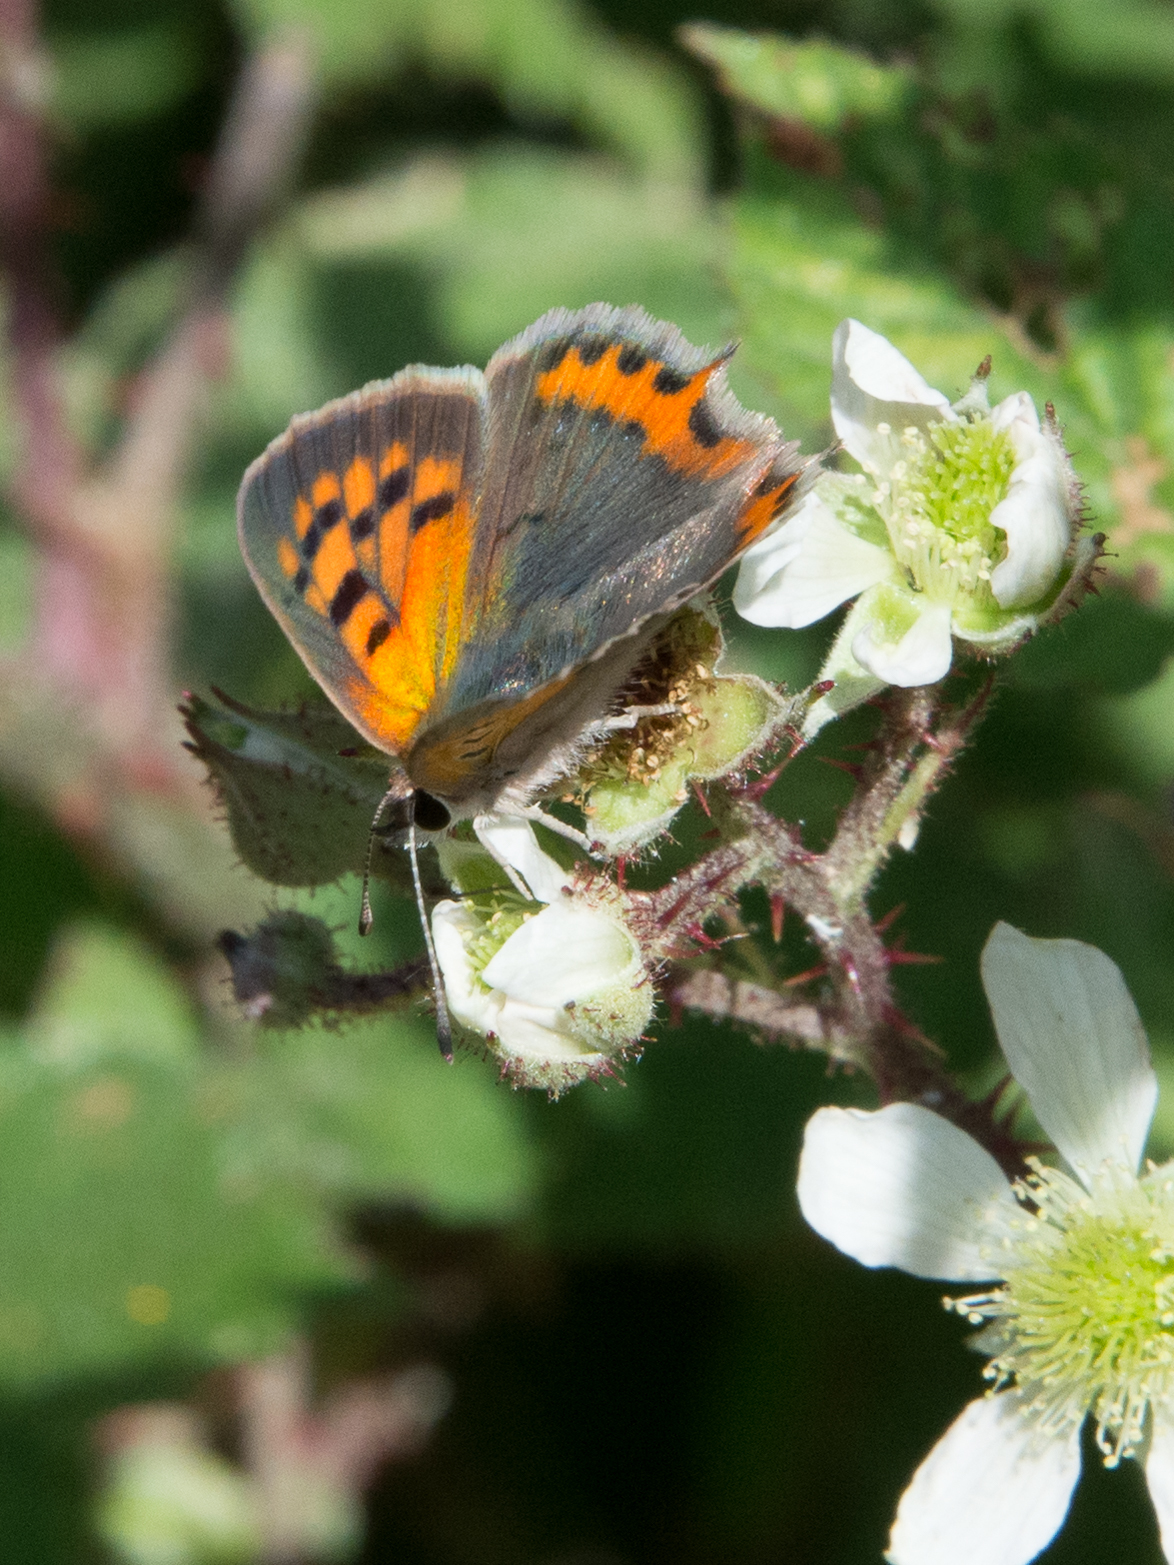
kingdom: Animalia
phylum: Arthropoda
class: Insecta
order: Lepidoptera
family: Lycaenidae
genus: Lycaena
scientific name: Lycaena phlaeas
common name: Small copper
